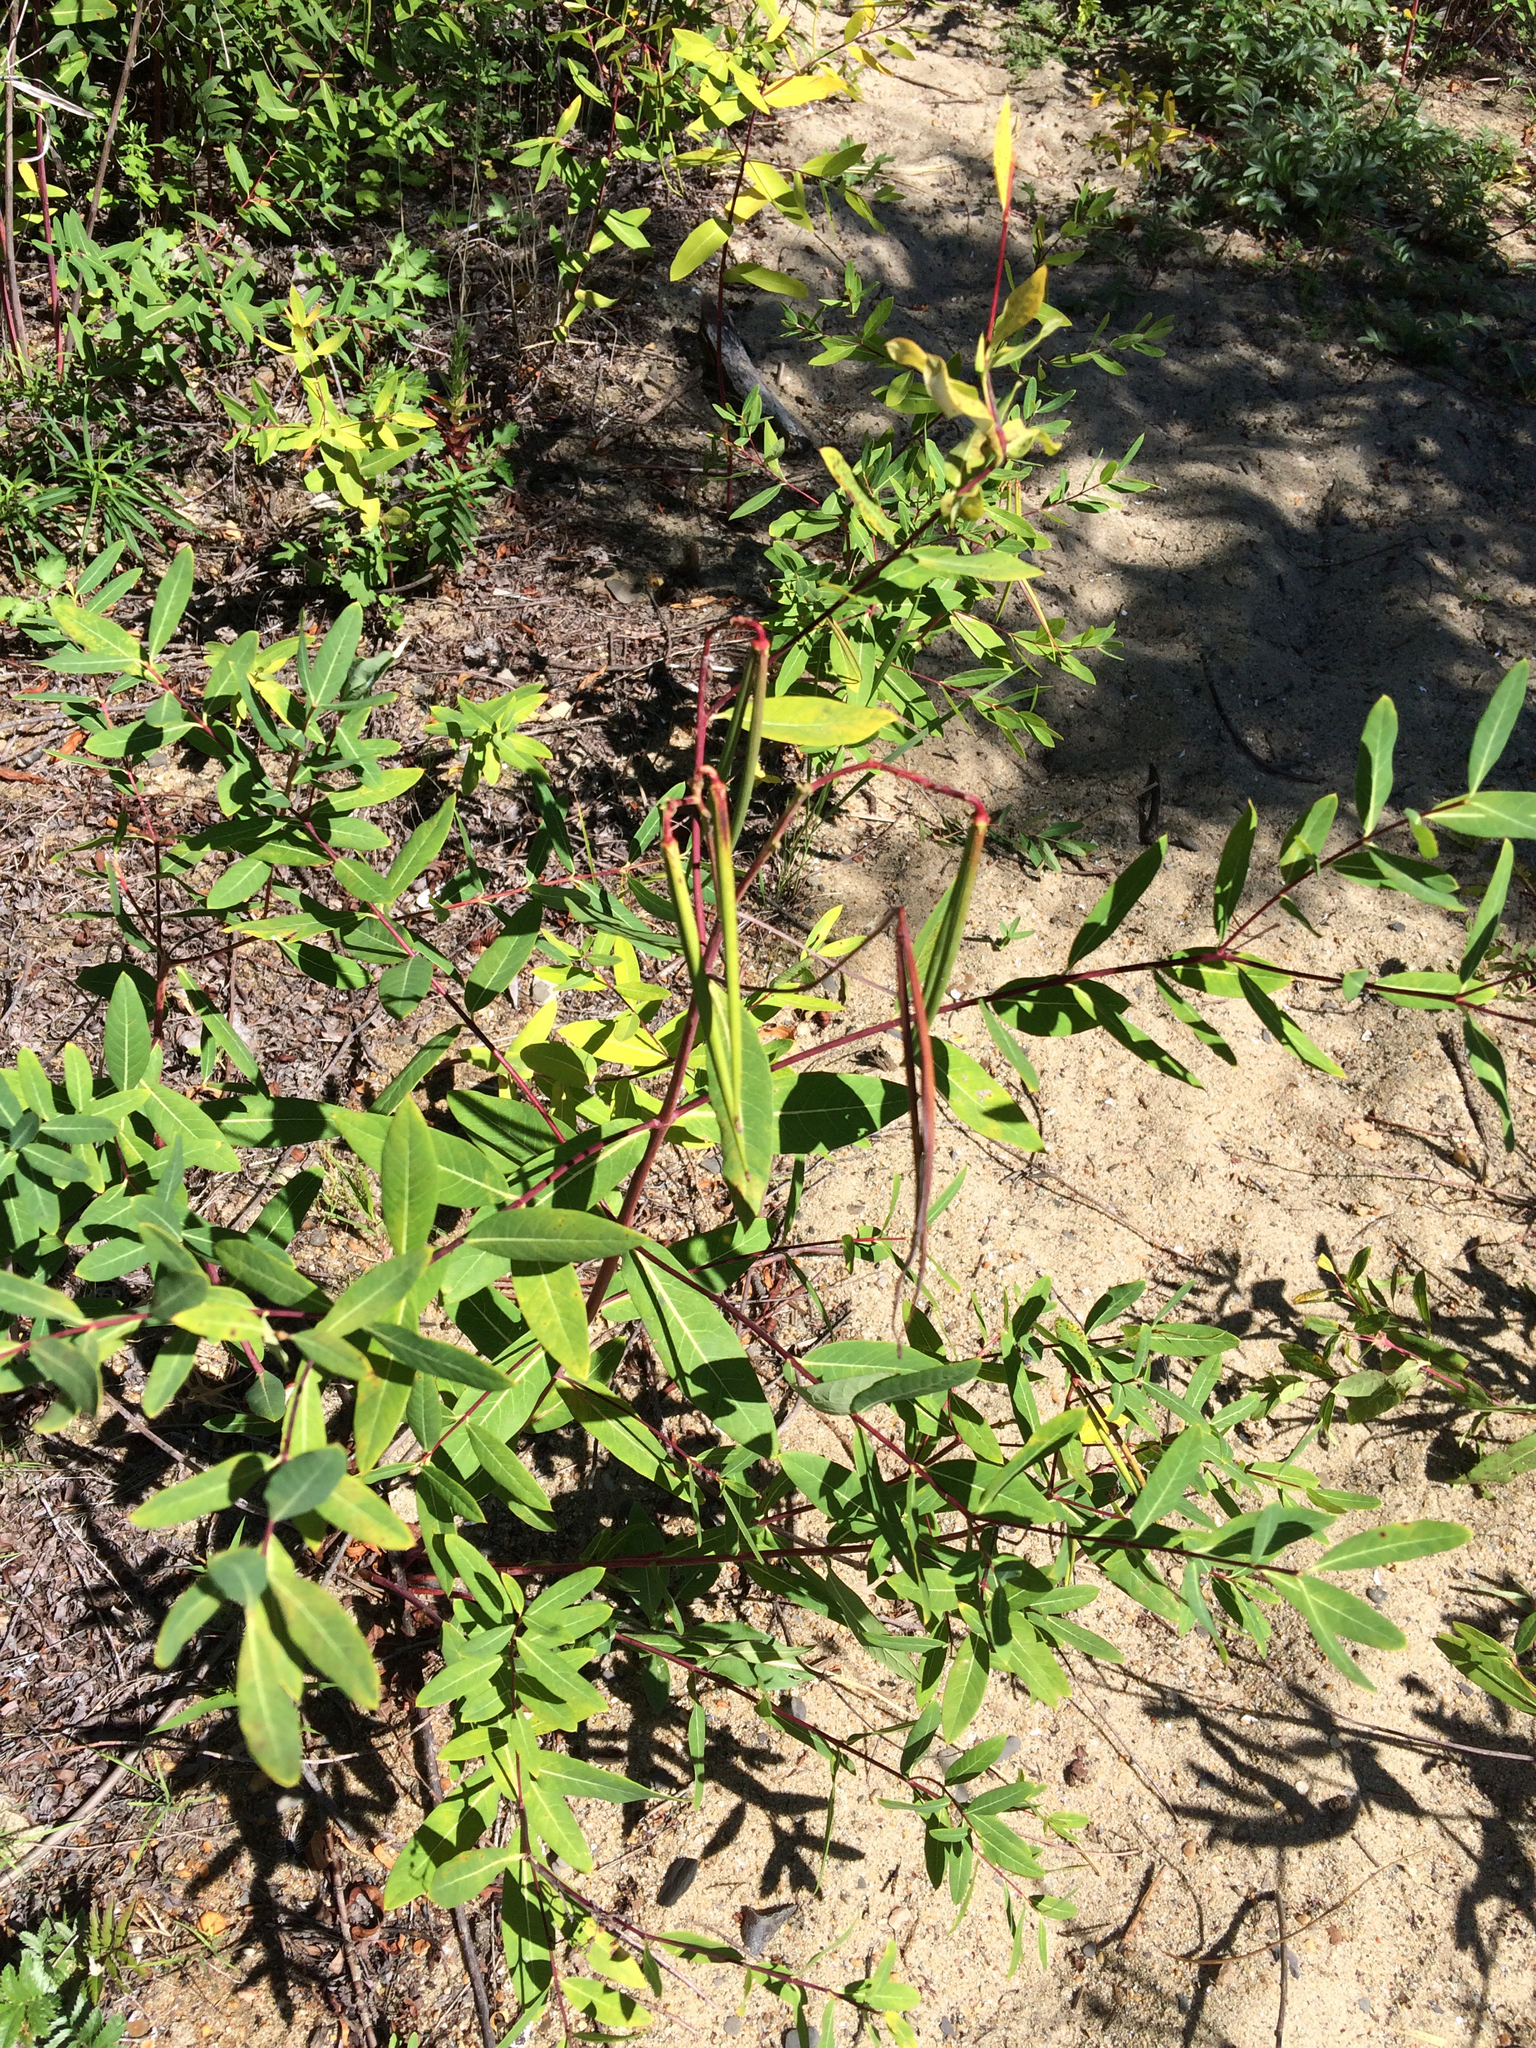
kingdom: Plantae
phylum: Tracheophyta
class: Magnoliopsida
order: Gentianales
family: Apocynaceae
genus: Apocynum
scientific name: Apocynum cannabinum
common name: Hemp dogbane
